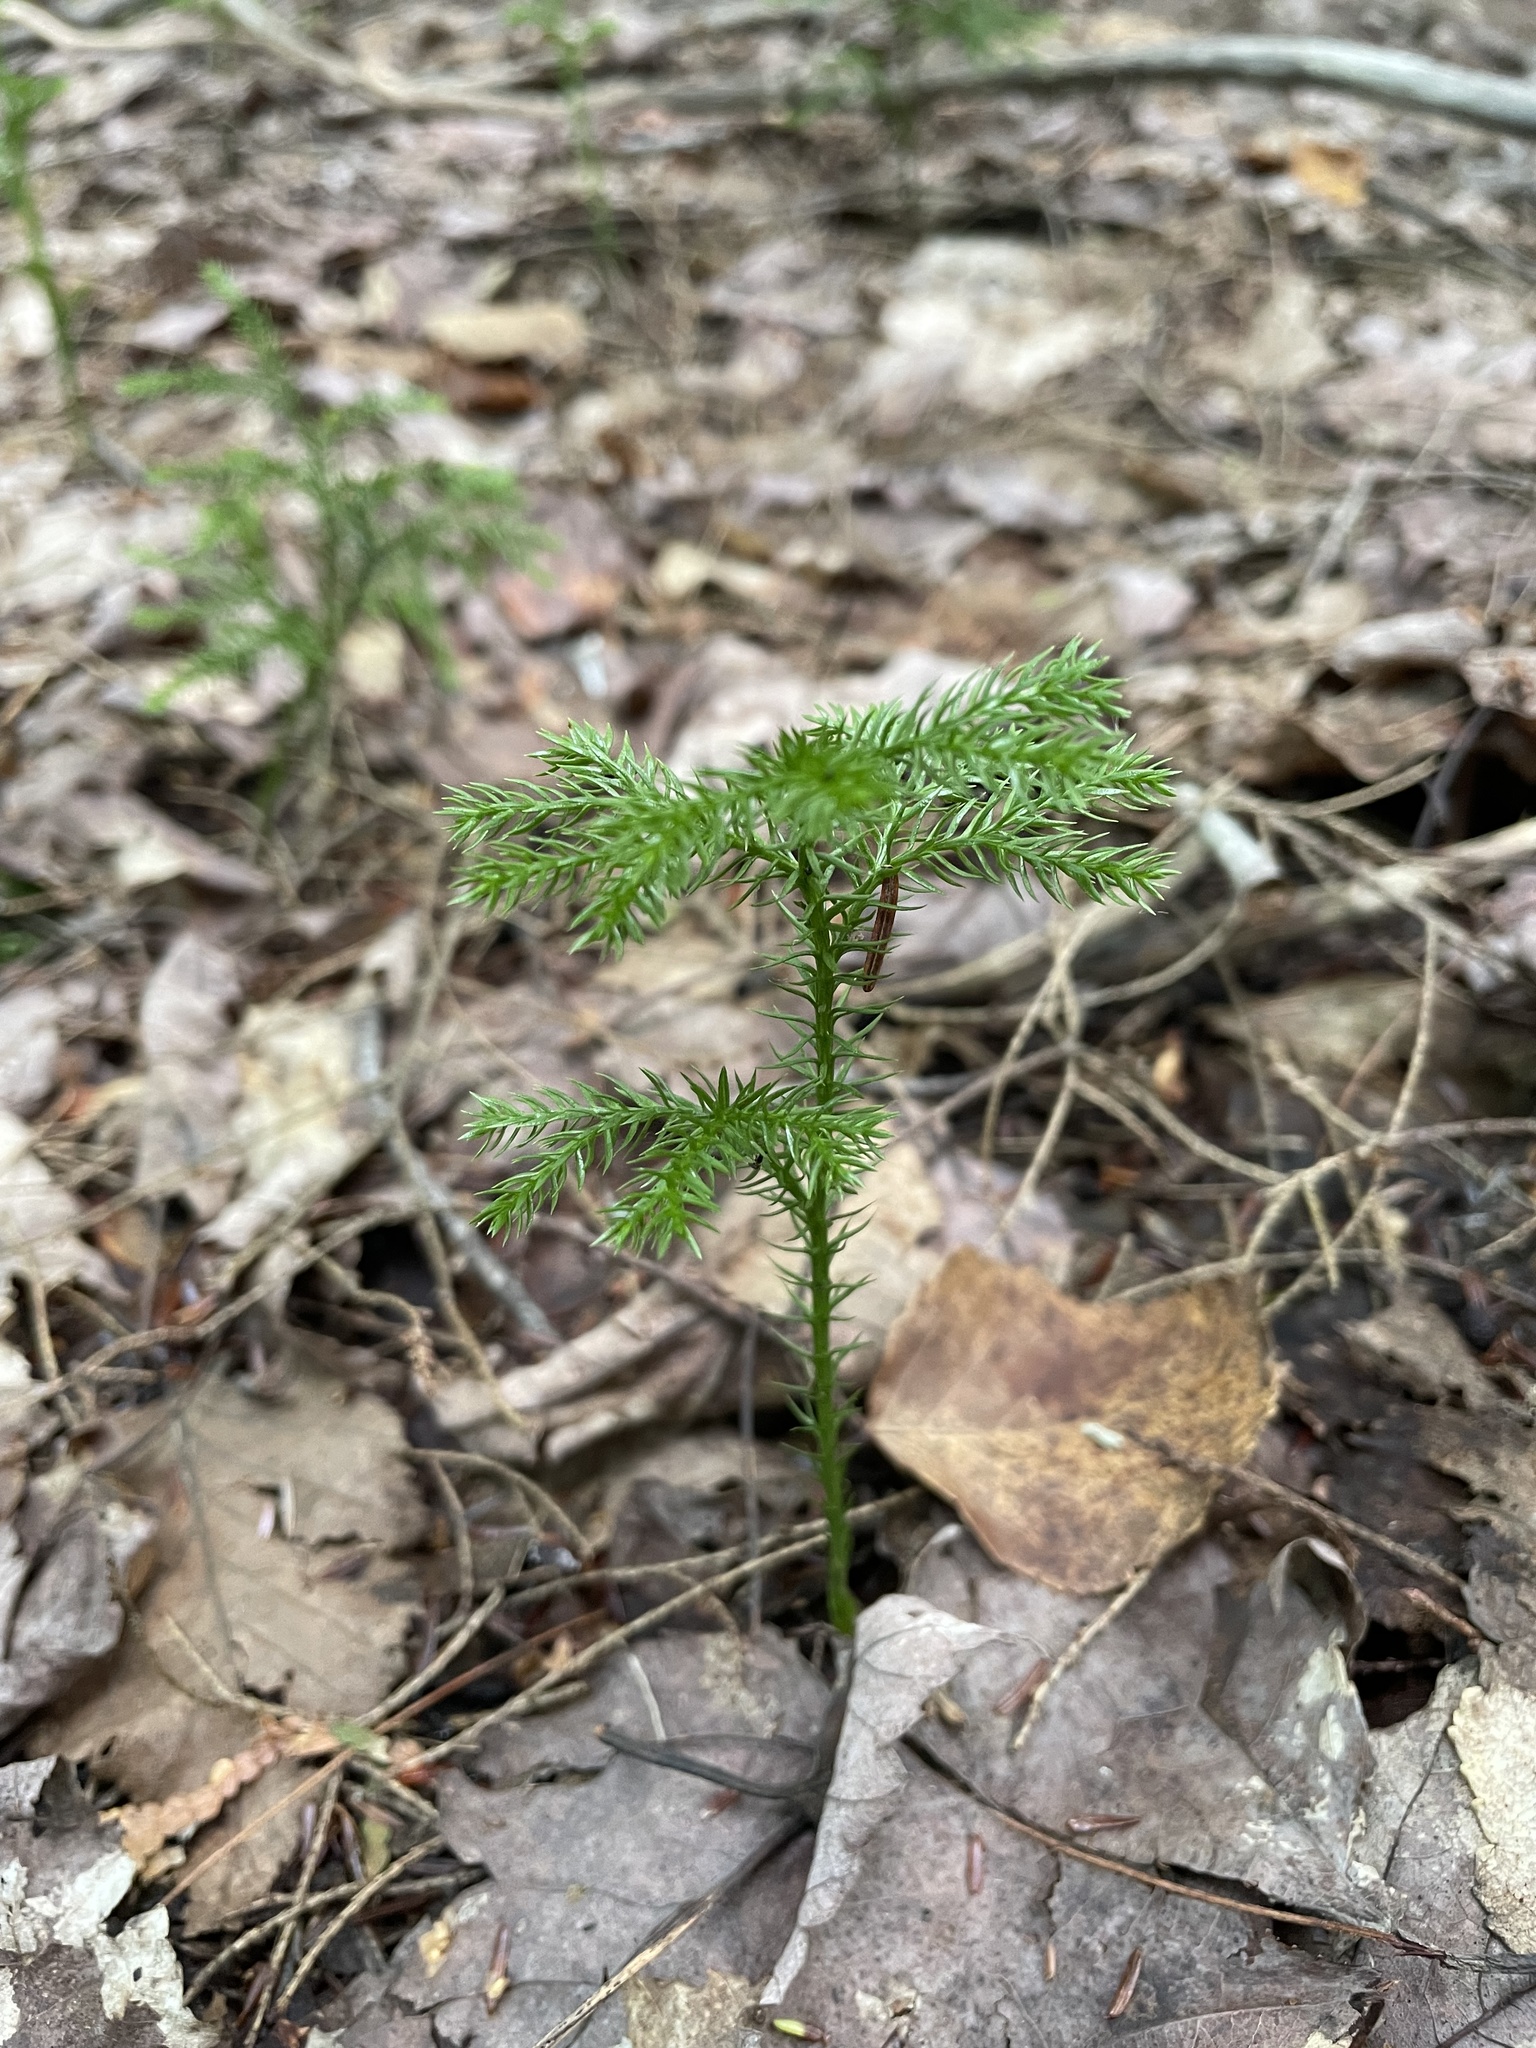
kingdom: Plantae
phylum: Tracheophyta
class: Lycopodiopsida
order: Lycopodiales
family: Lycopodiaceae
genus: Dendrolycopodium
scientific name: Dendrolycopodium dendroideum
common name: Northern tree-clubmoss
